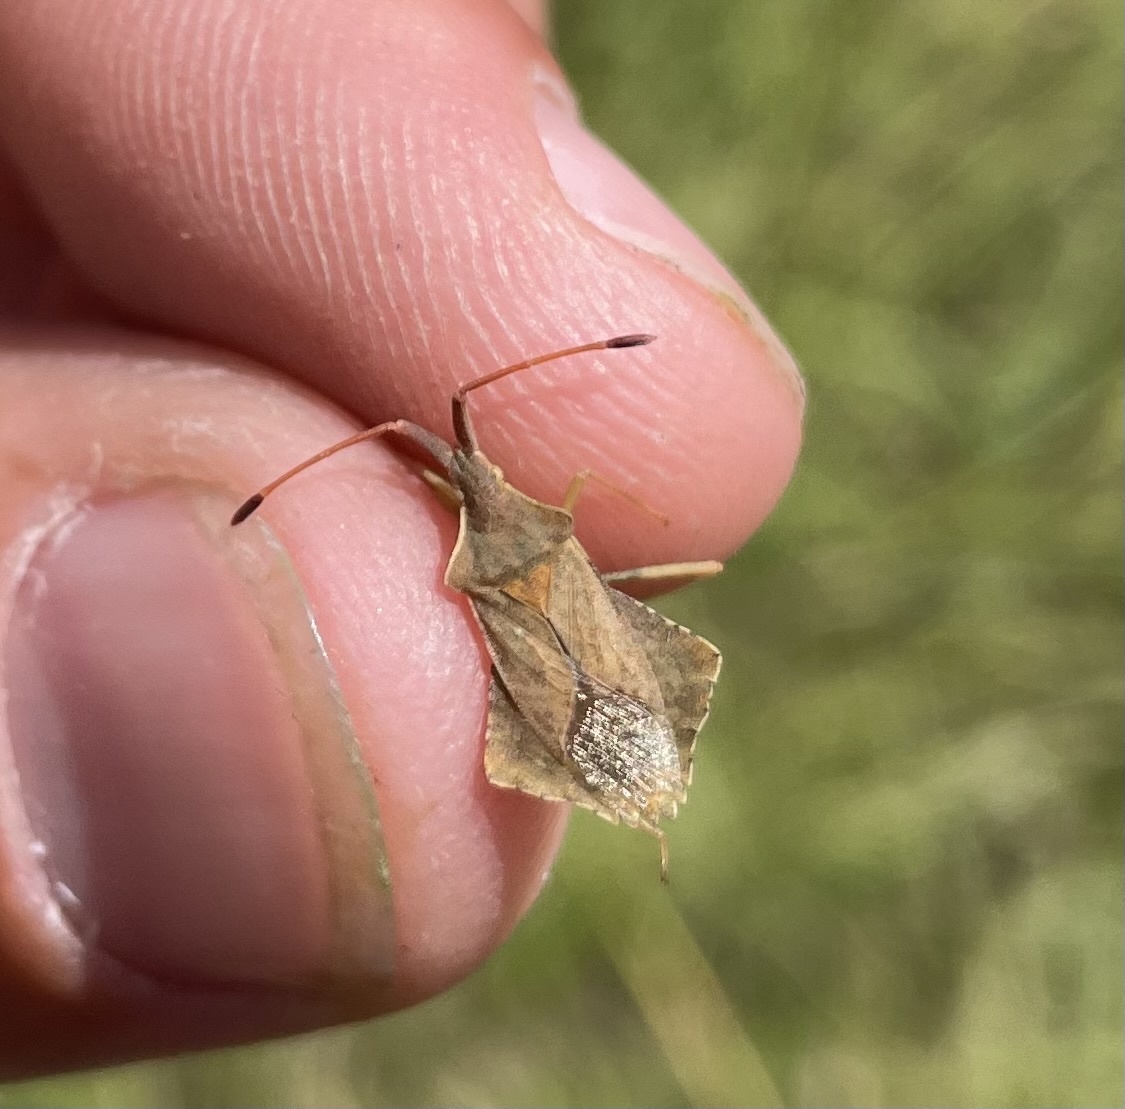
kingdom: Animalia
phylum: Arthropoda
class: Insecta
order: Hemiptera
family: Coreidae
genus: Syromastus
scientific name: Syromastus rhombeus
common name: Rhombic leatherbug
